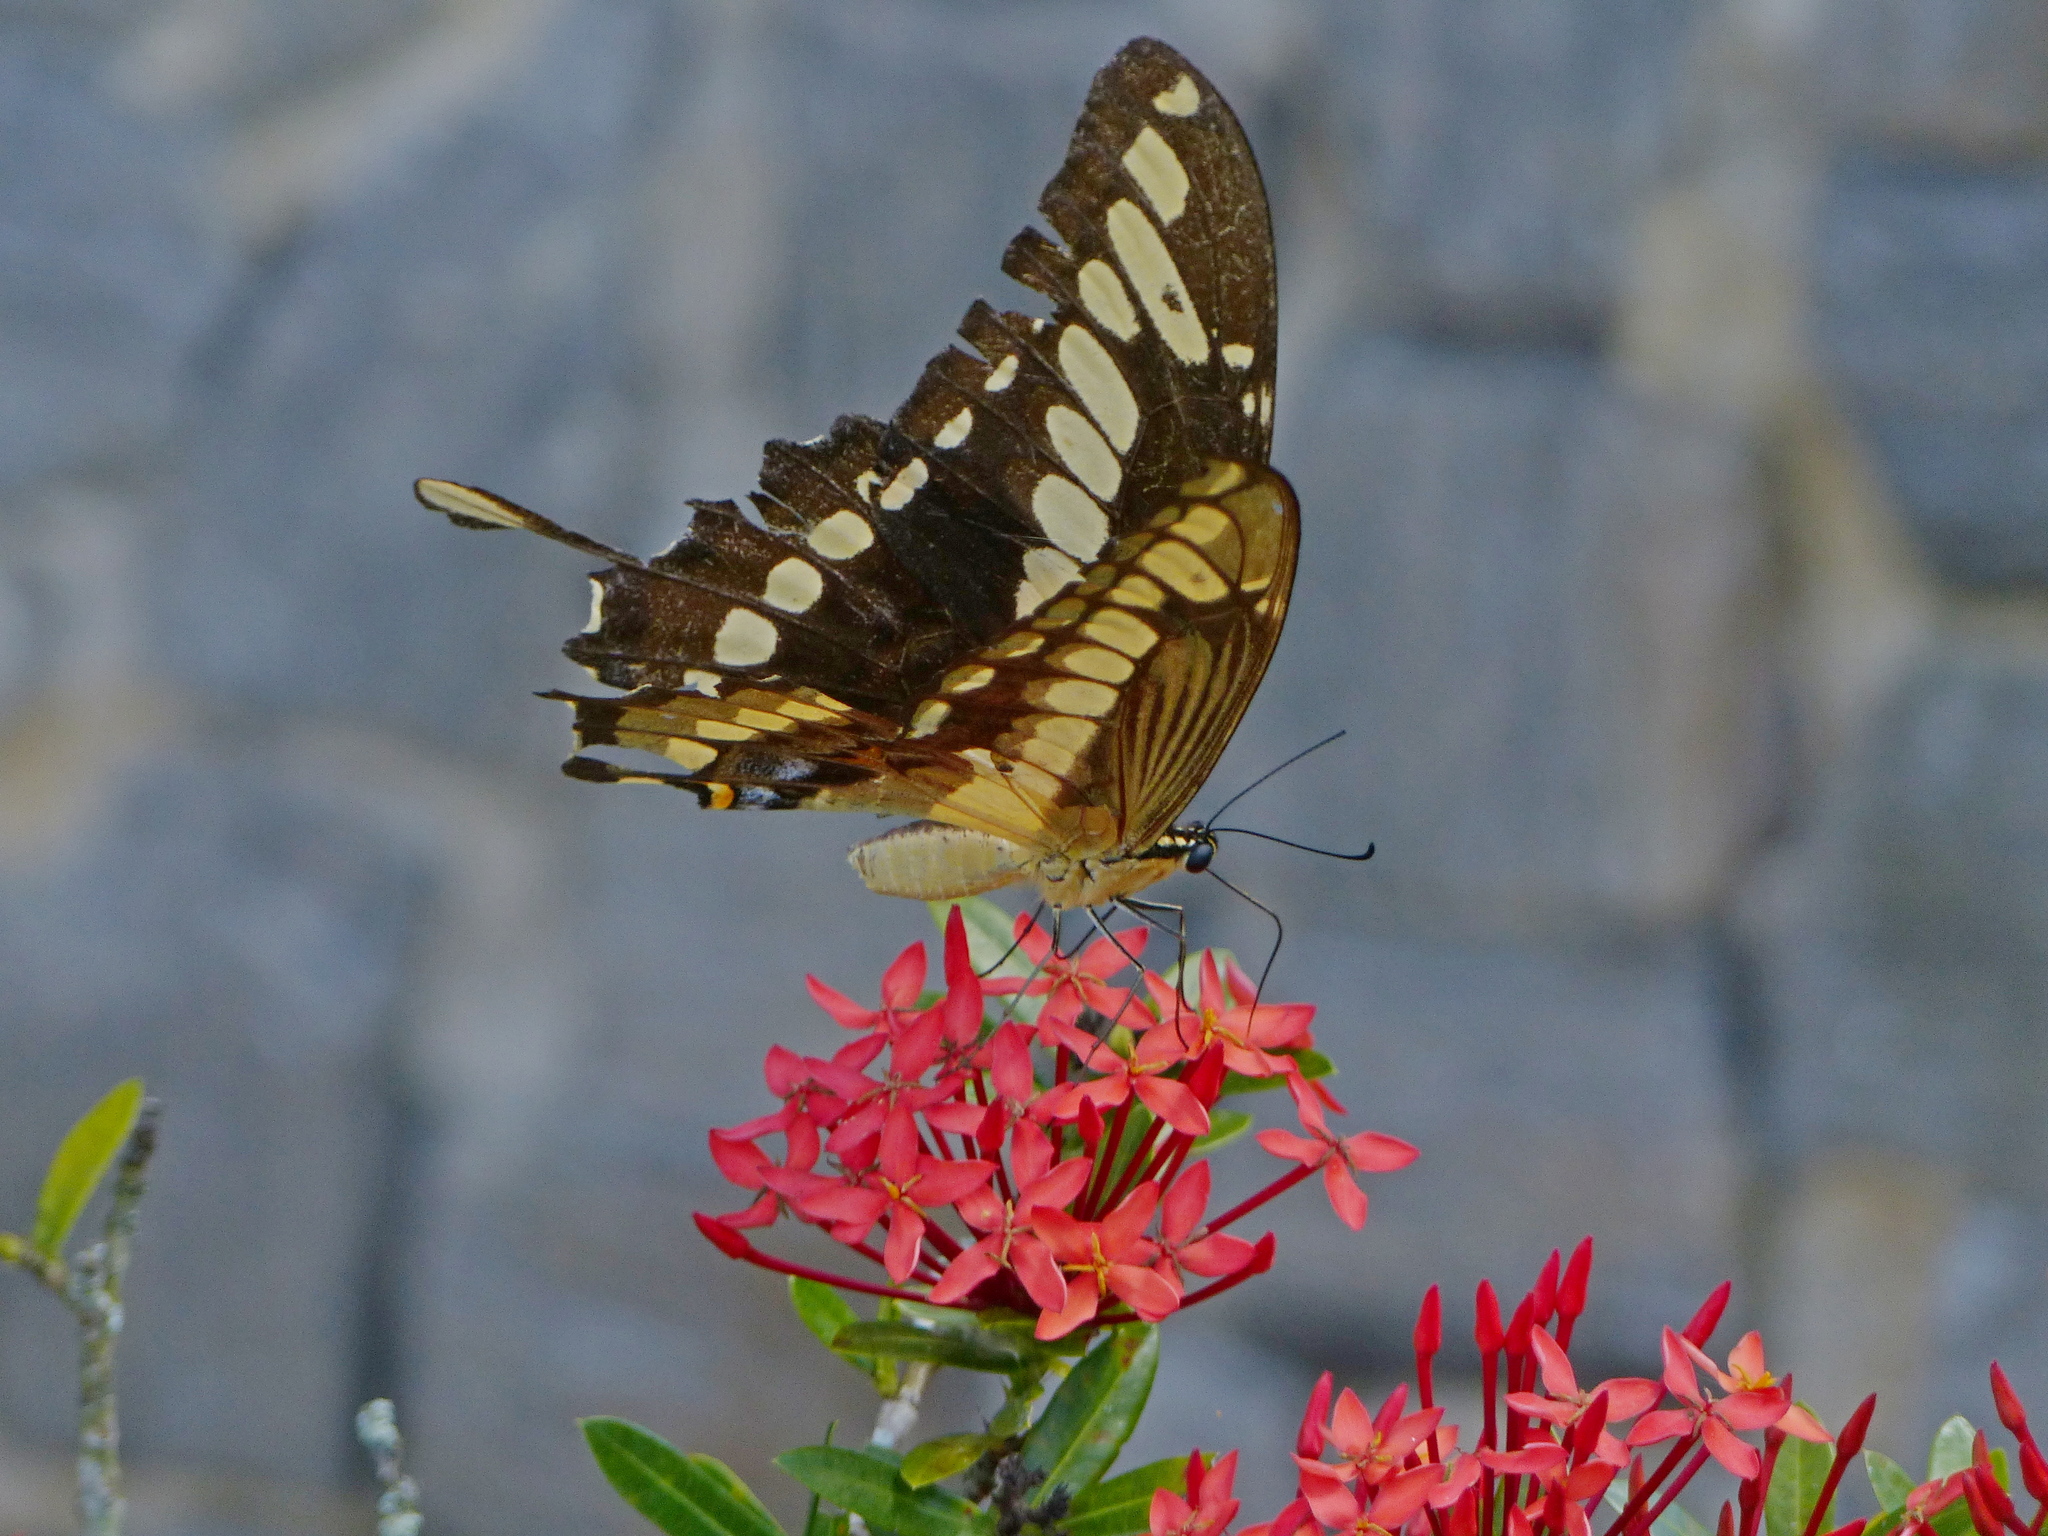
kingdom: Animalia
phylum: Arthropoda
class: Insecta
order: Lepidoptera
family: Papilionidae
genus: Papilio
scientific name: Papilio thoas
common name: King swallowtail
